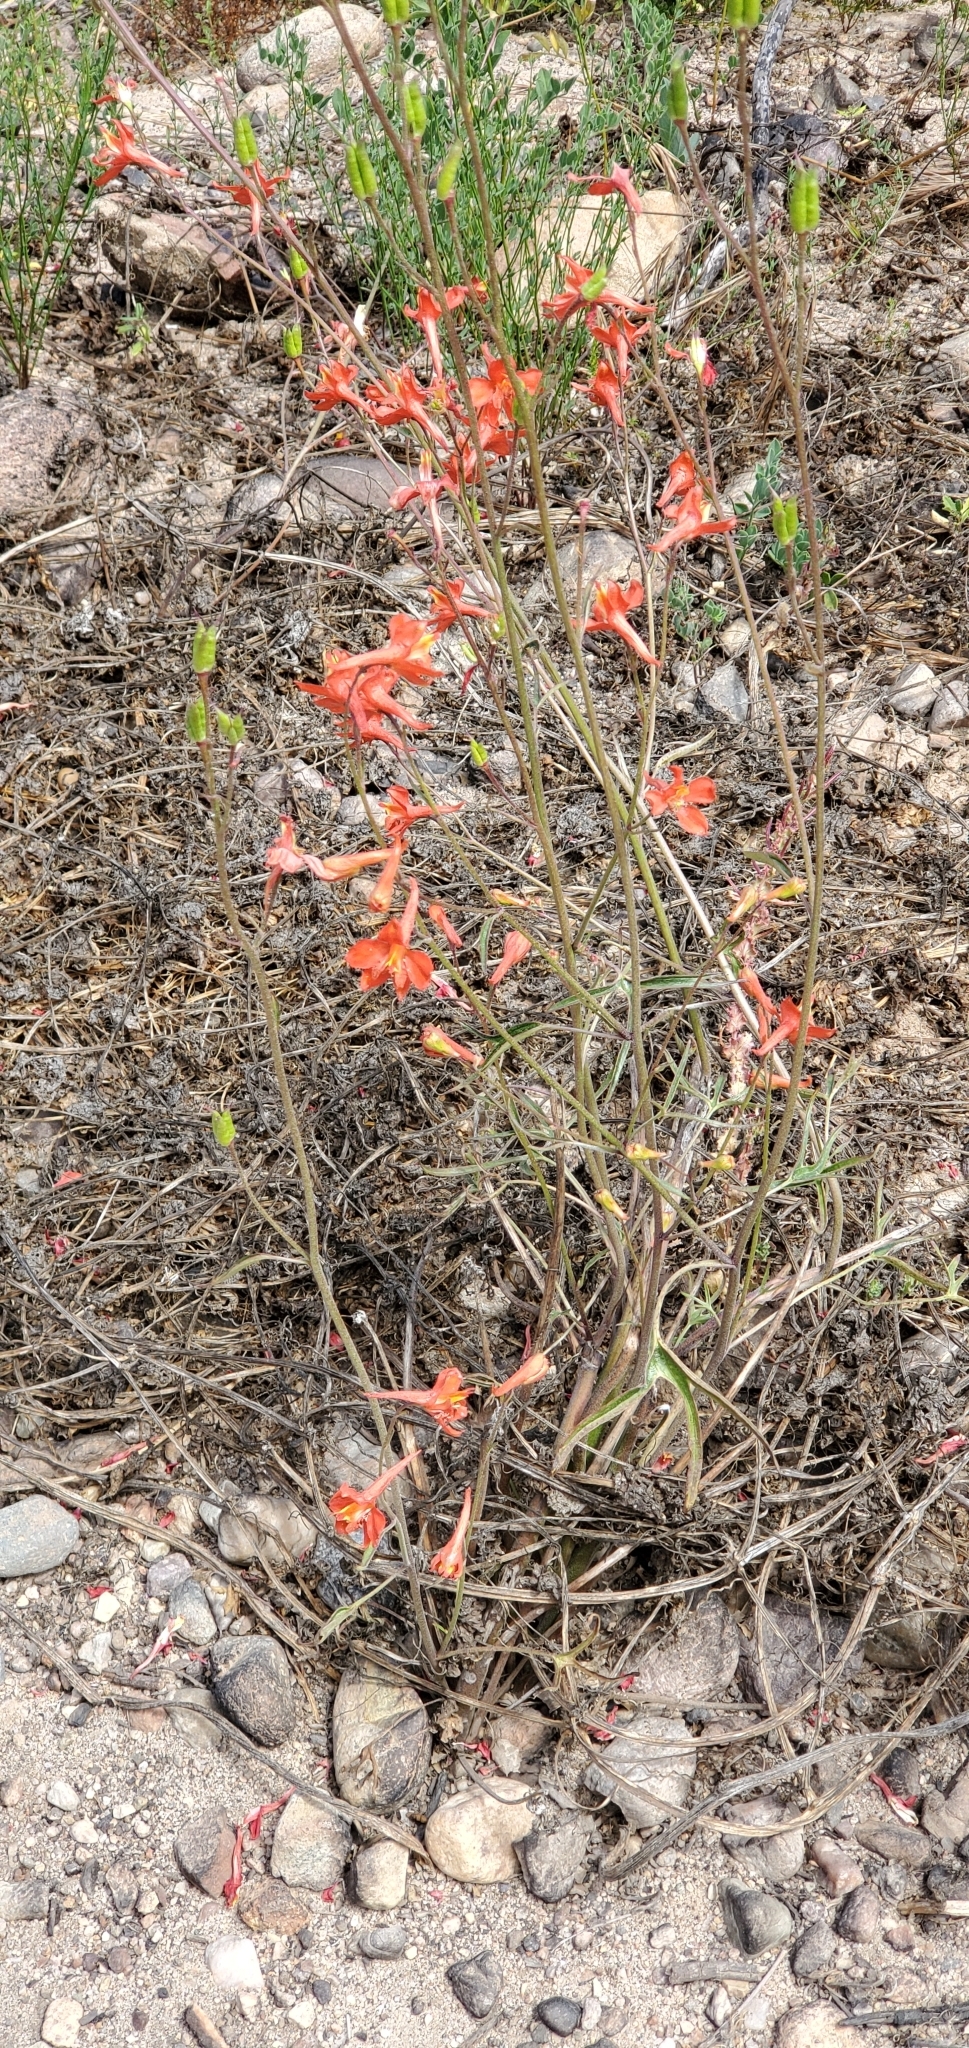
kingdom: Plantae
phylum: Tracheophyta
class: Magnoliopsida
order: Ranunculales
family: Ranunculaceae
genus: Delphinium
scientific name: Delphinium cardinale
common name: Scarlet larkspur
